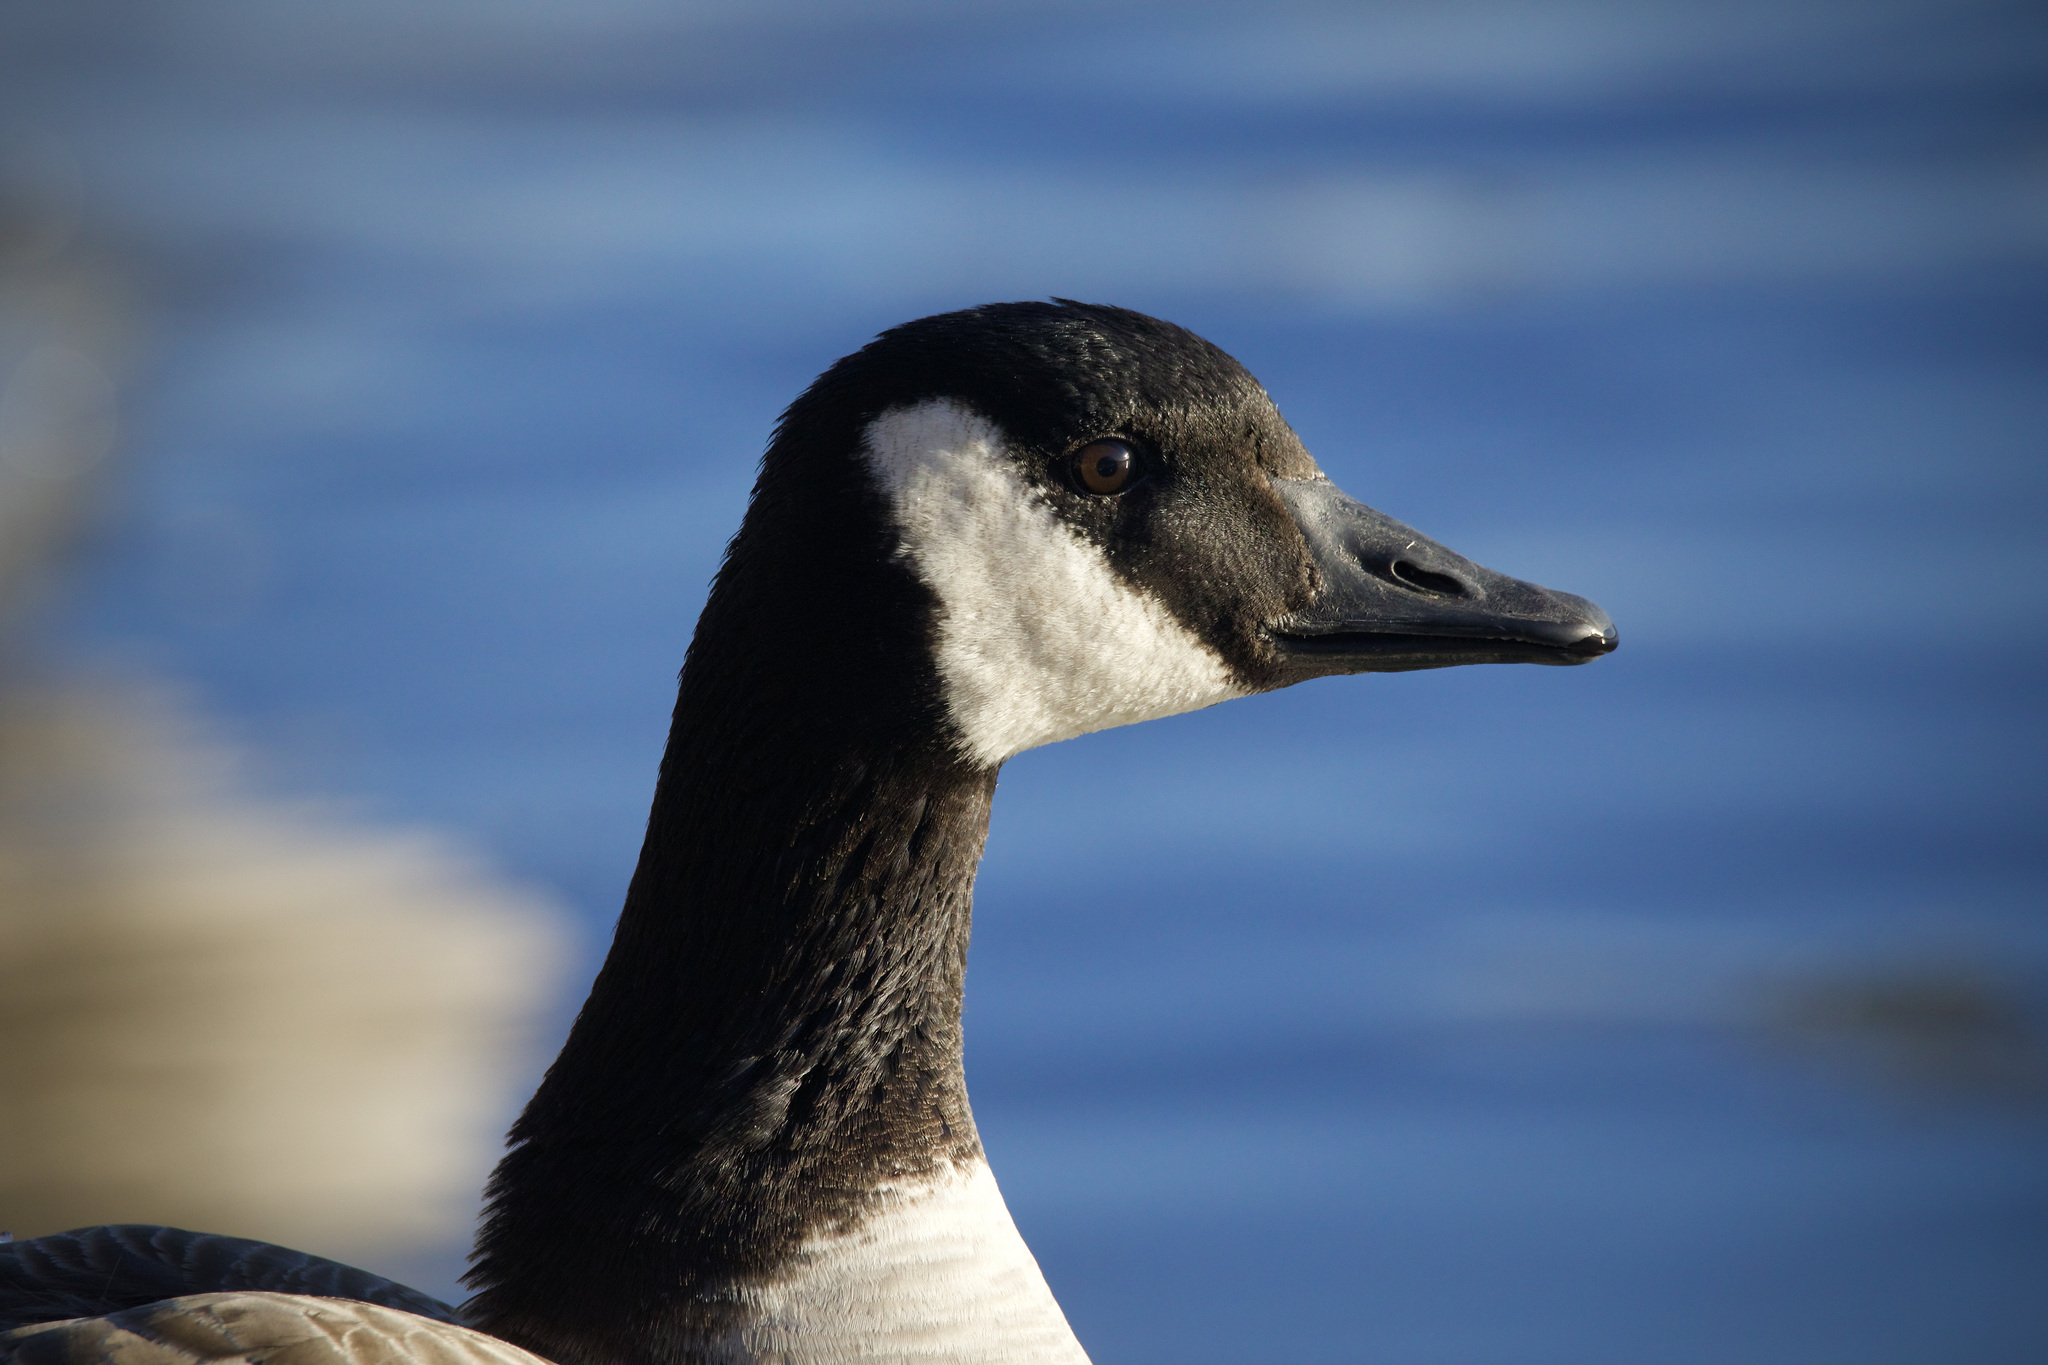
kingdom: Animalia
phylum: Chordata
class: Aves
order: Anseriformes
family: Anatidae
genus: Branta
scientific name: Branta canadensis
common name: Canada goose
